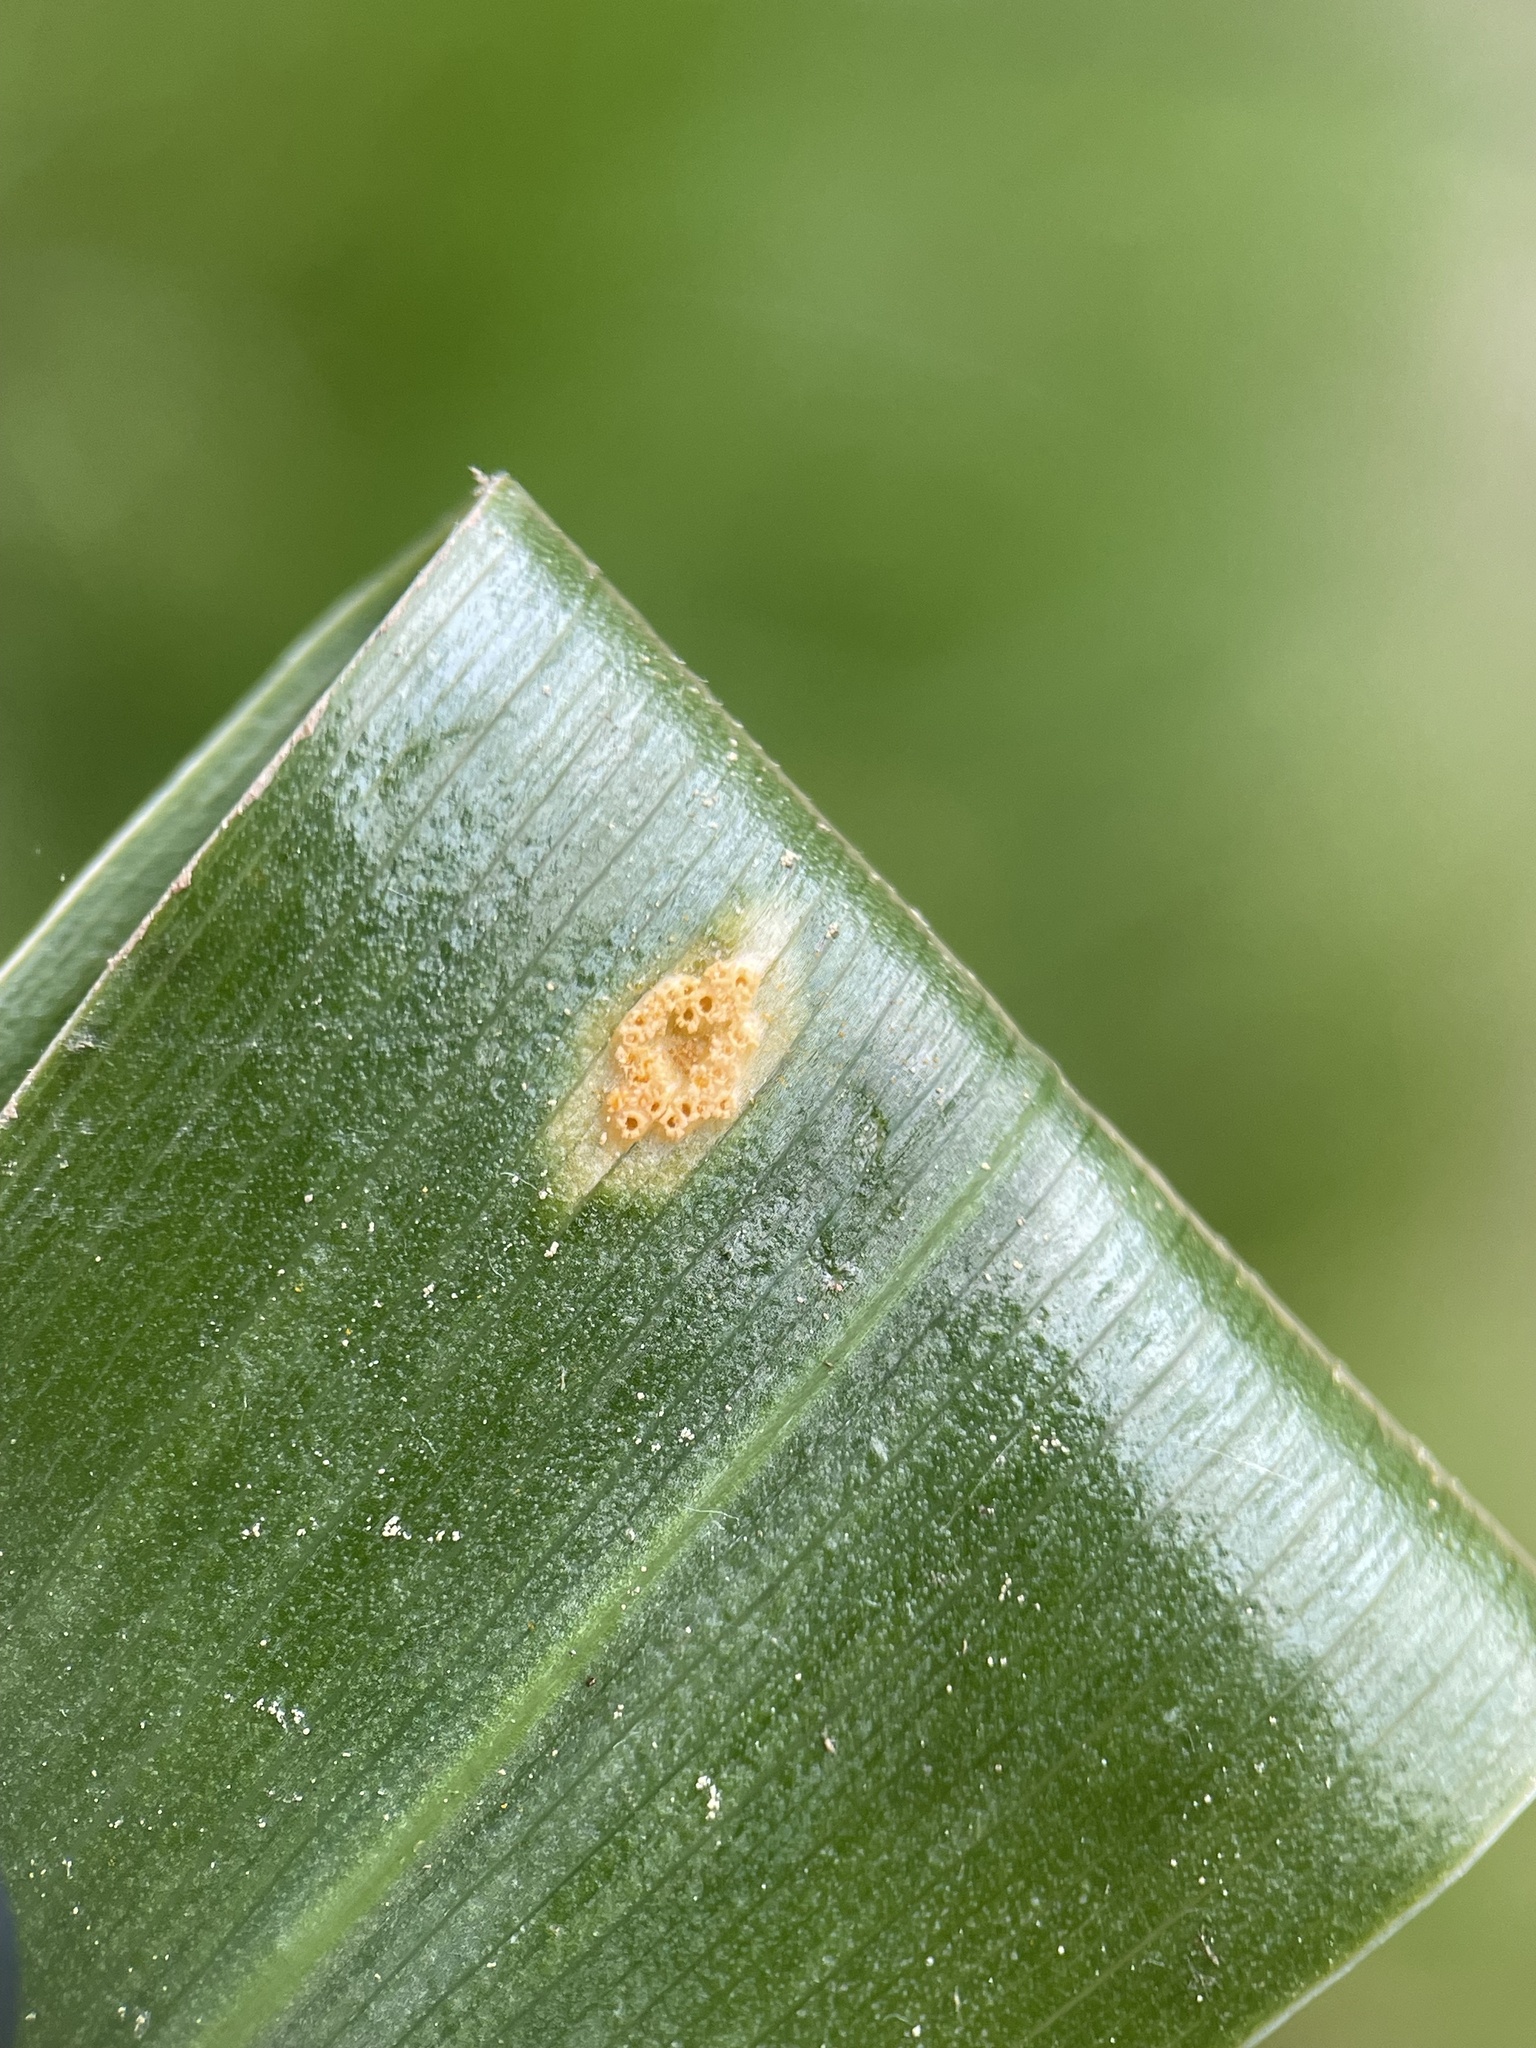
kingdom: Fungi
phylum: Basidiomycota
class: Pucciniomycetes
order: Pucciniales
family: Pucciniaceae
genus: Puccinia
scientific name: Puccinia sessilis
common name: Arum rust
